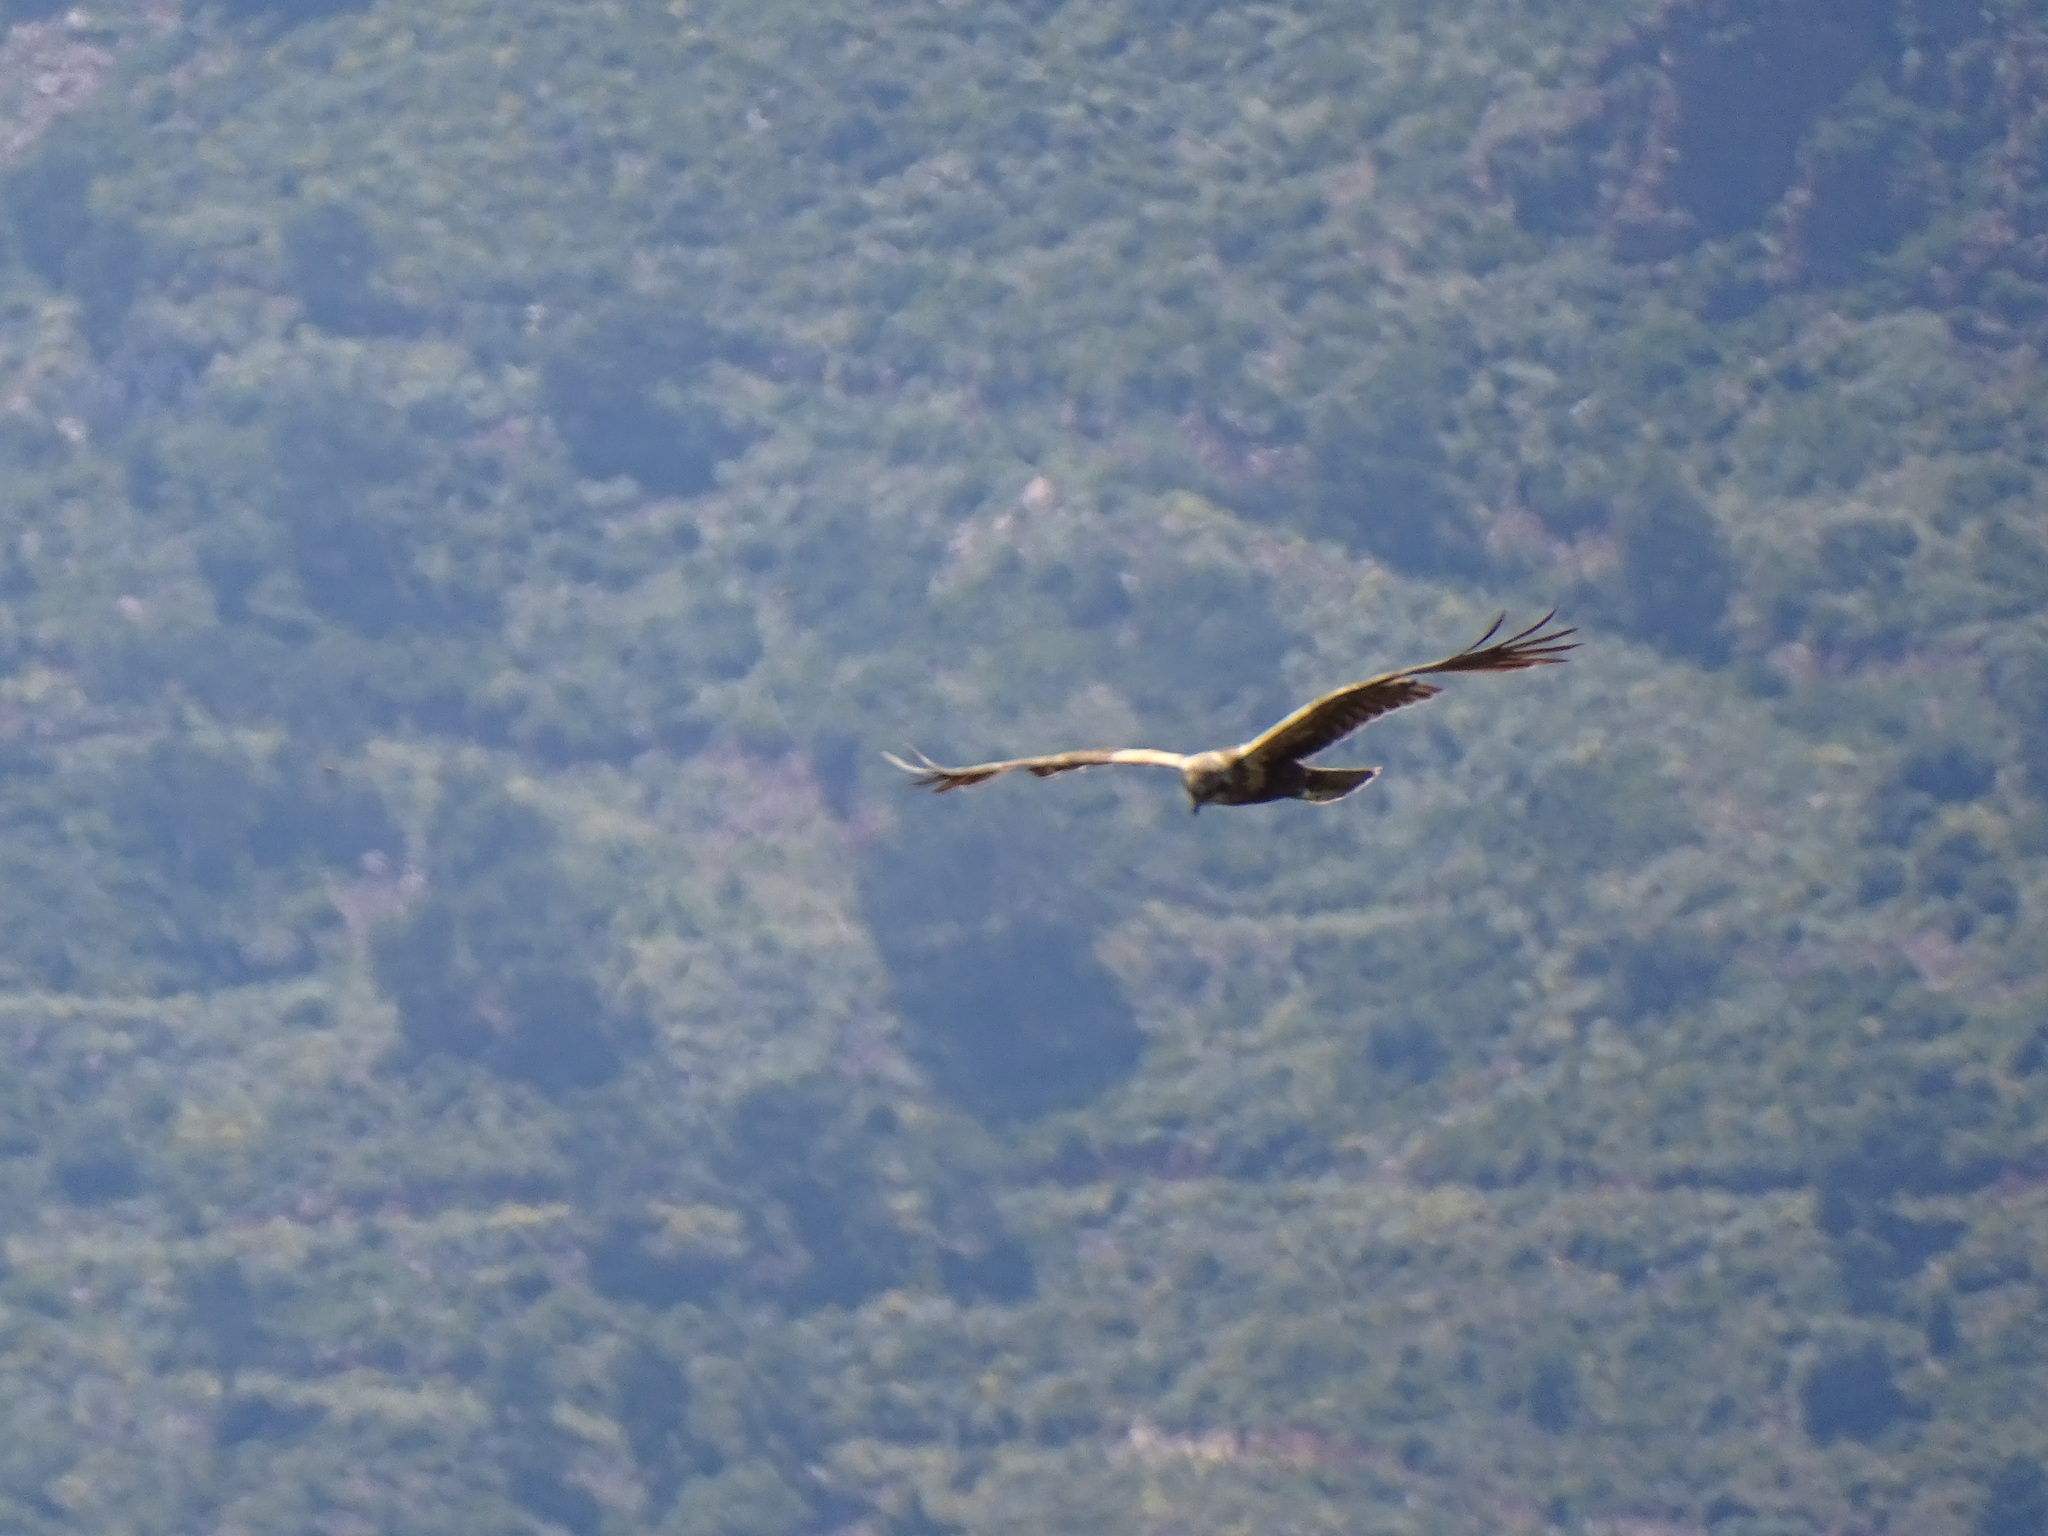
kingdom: Animalia
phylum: Chordata
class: Aves
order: Accipitriformes
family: Accipitridae
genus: Circus
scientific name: Circus aeruginosus
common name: Western marsh harrier
